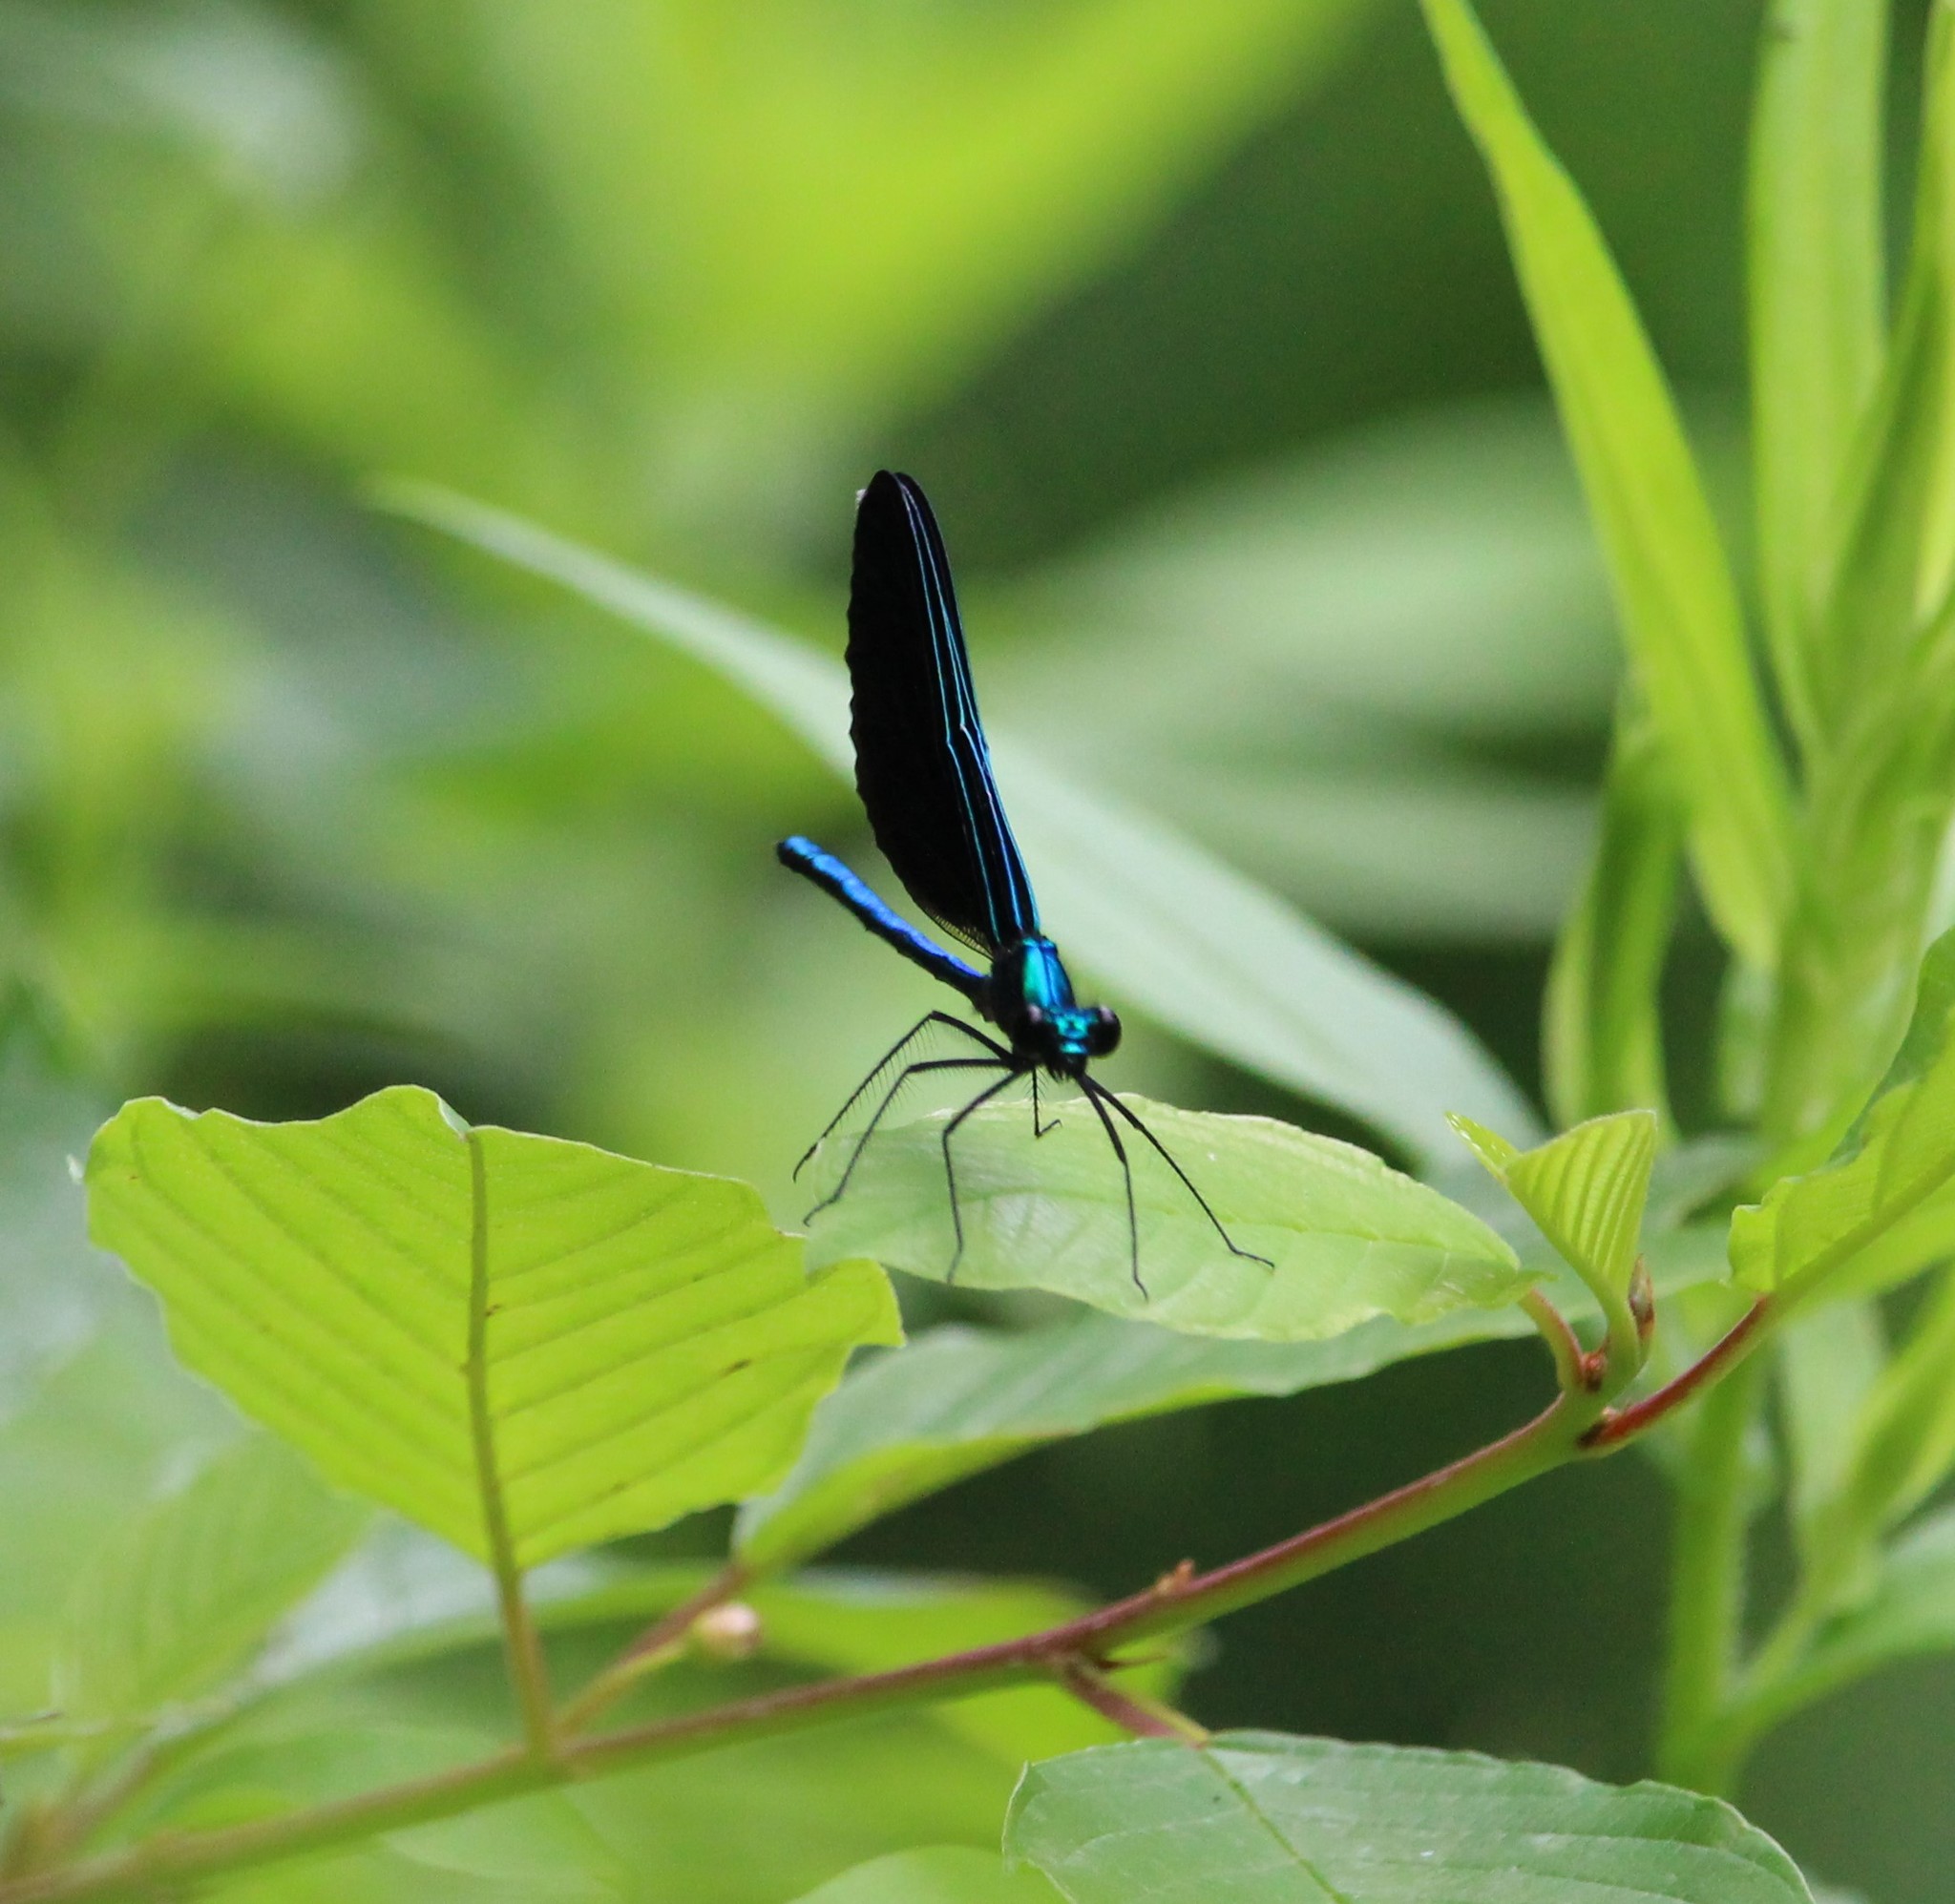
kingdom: Animalia
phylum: Arthropoda
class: Insecta
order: Odonata
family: Calopterygidae
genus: Calopteryx
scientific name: Calopteryx maculata
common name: Ebony jewelwing
